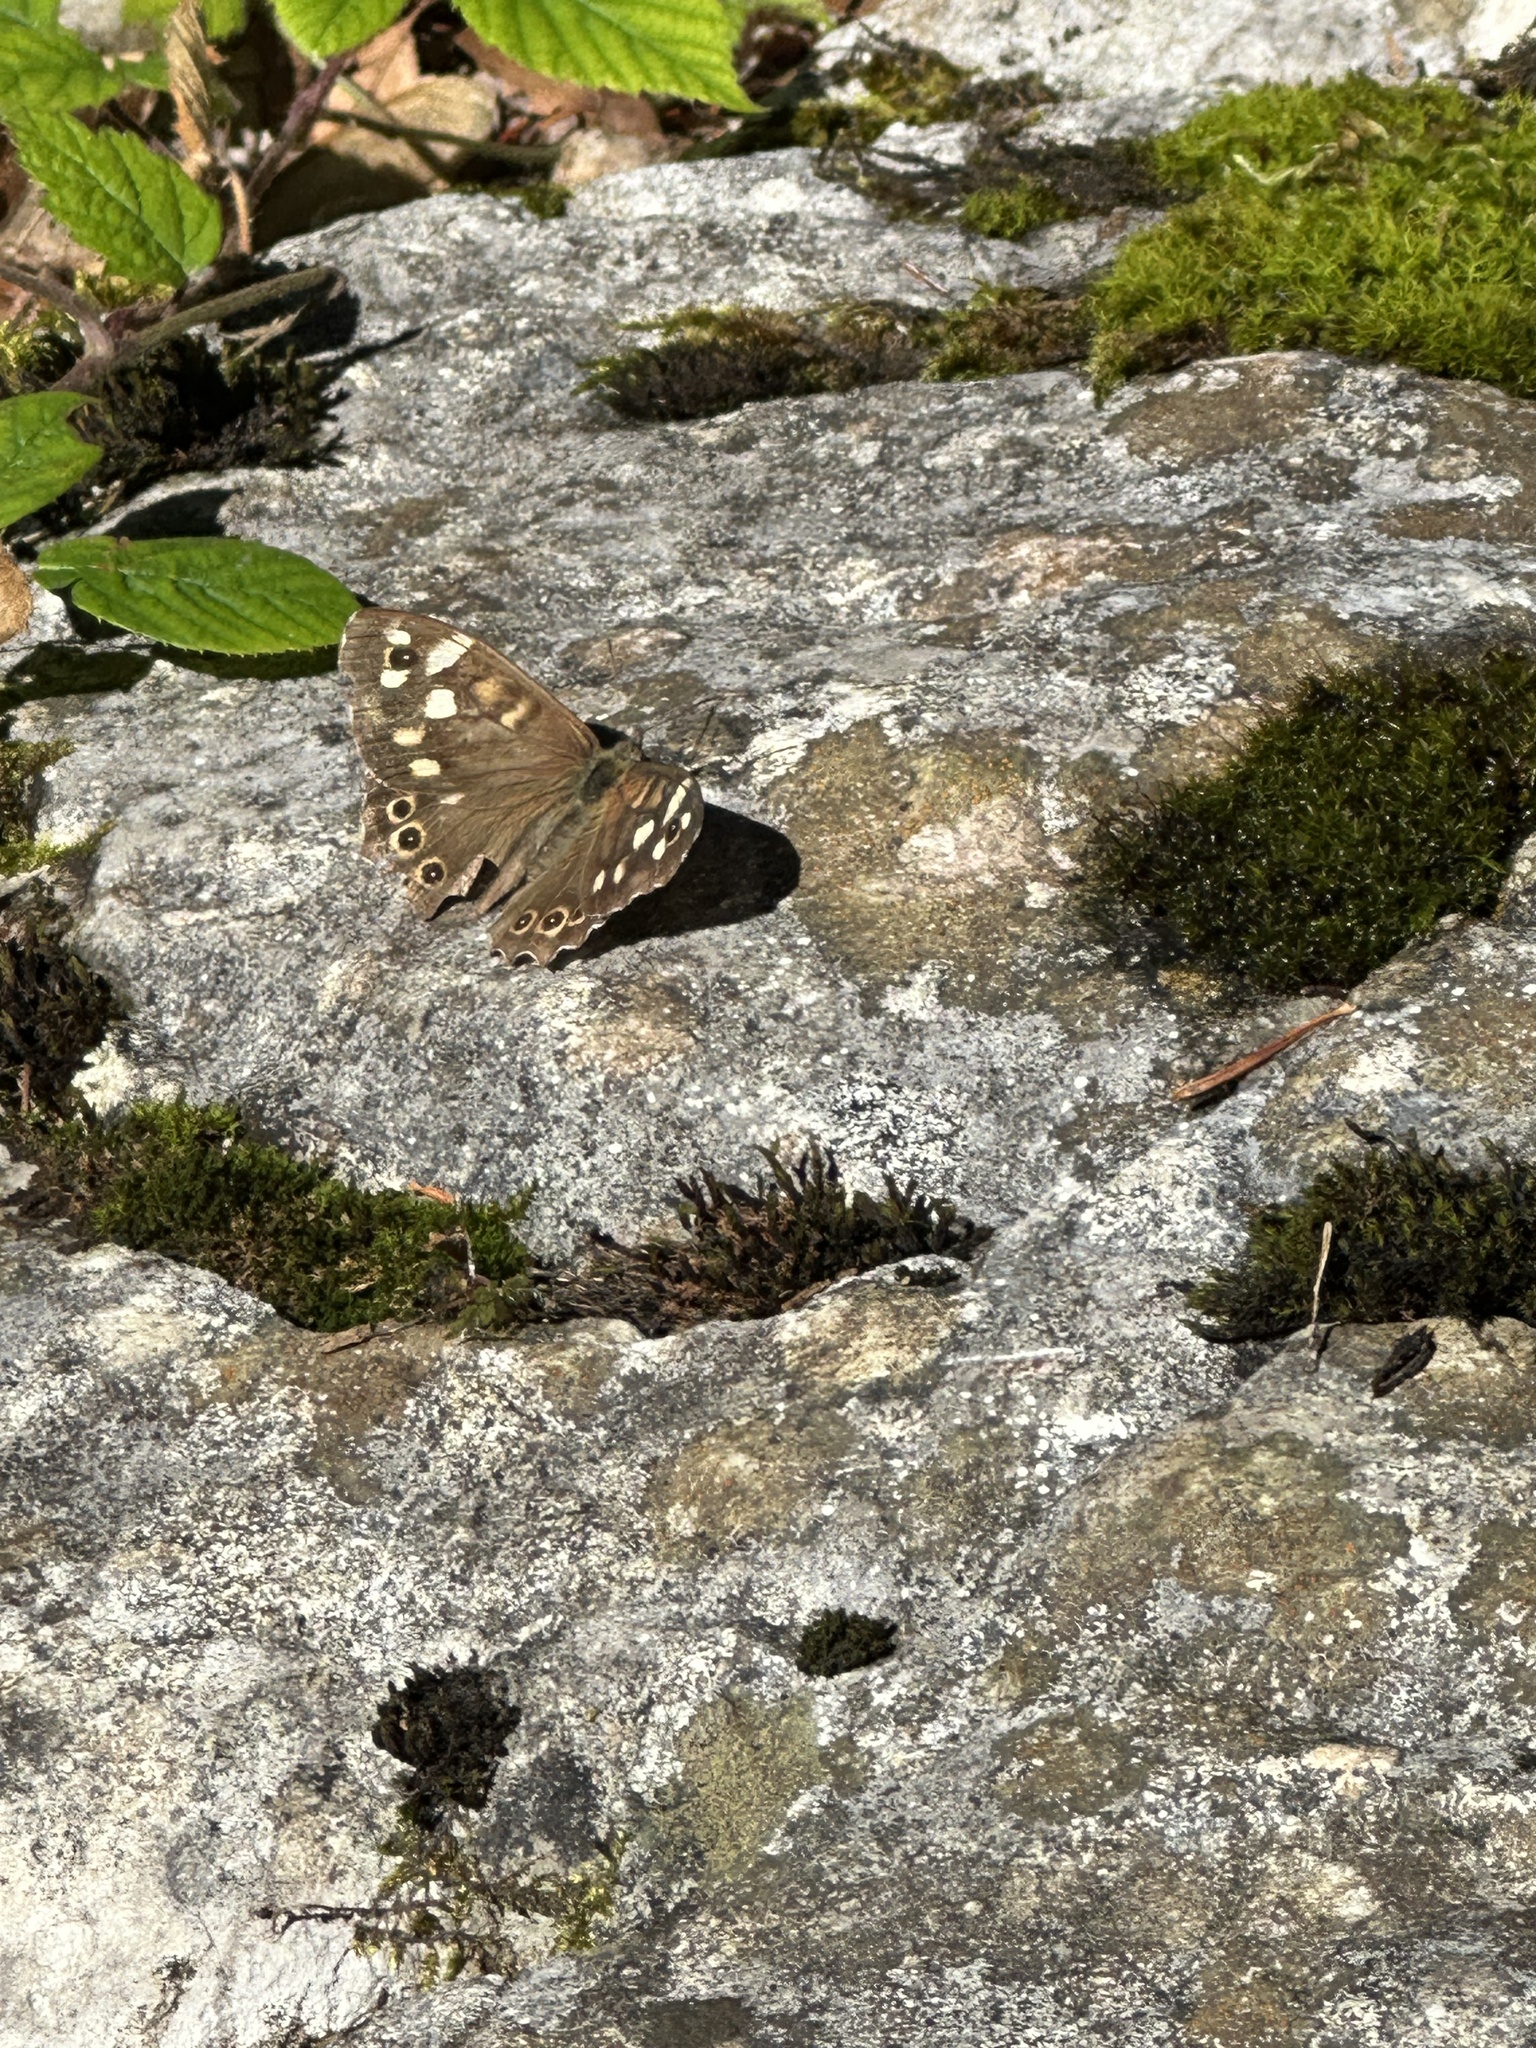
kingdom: Animalia
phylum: Arthropoda
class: Insecta
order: Lepidoptera
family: Nymphalidae
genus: Pararge
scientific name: Pararge aegeria
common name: Speckled wood
